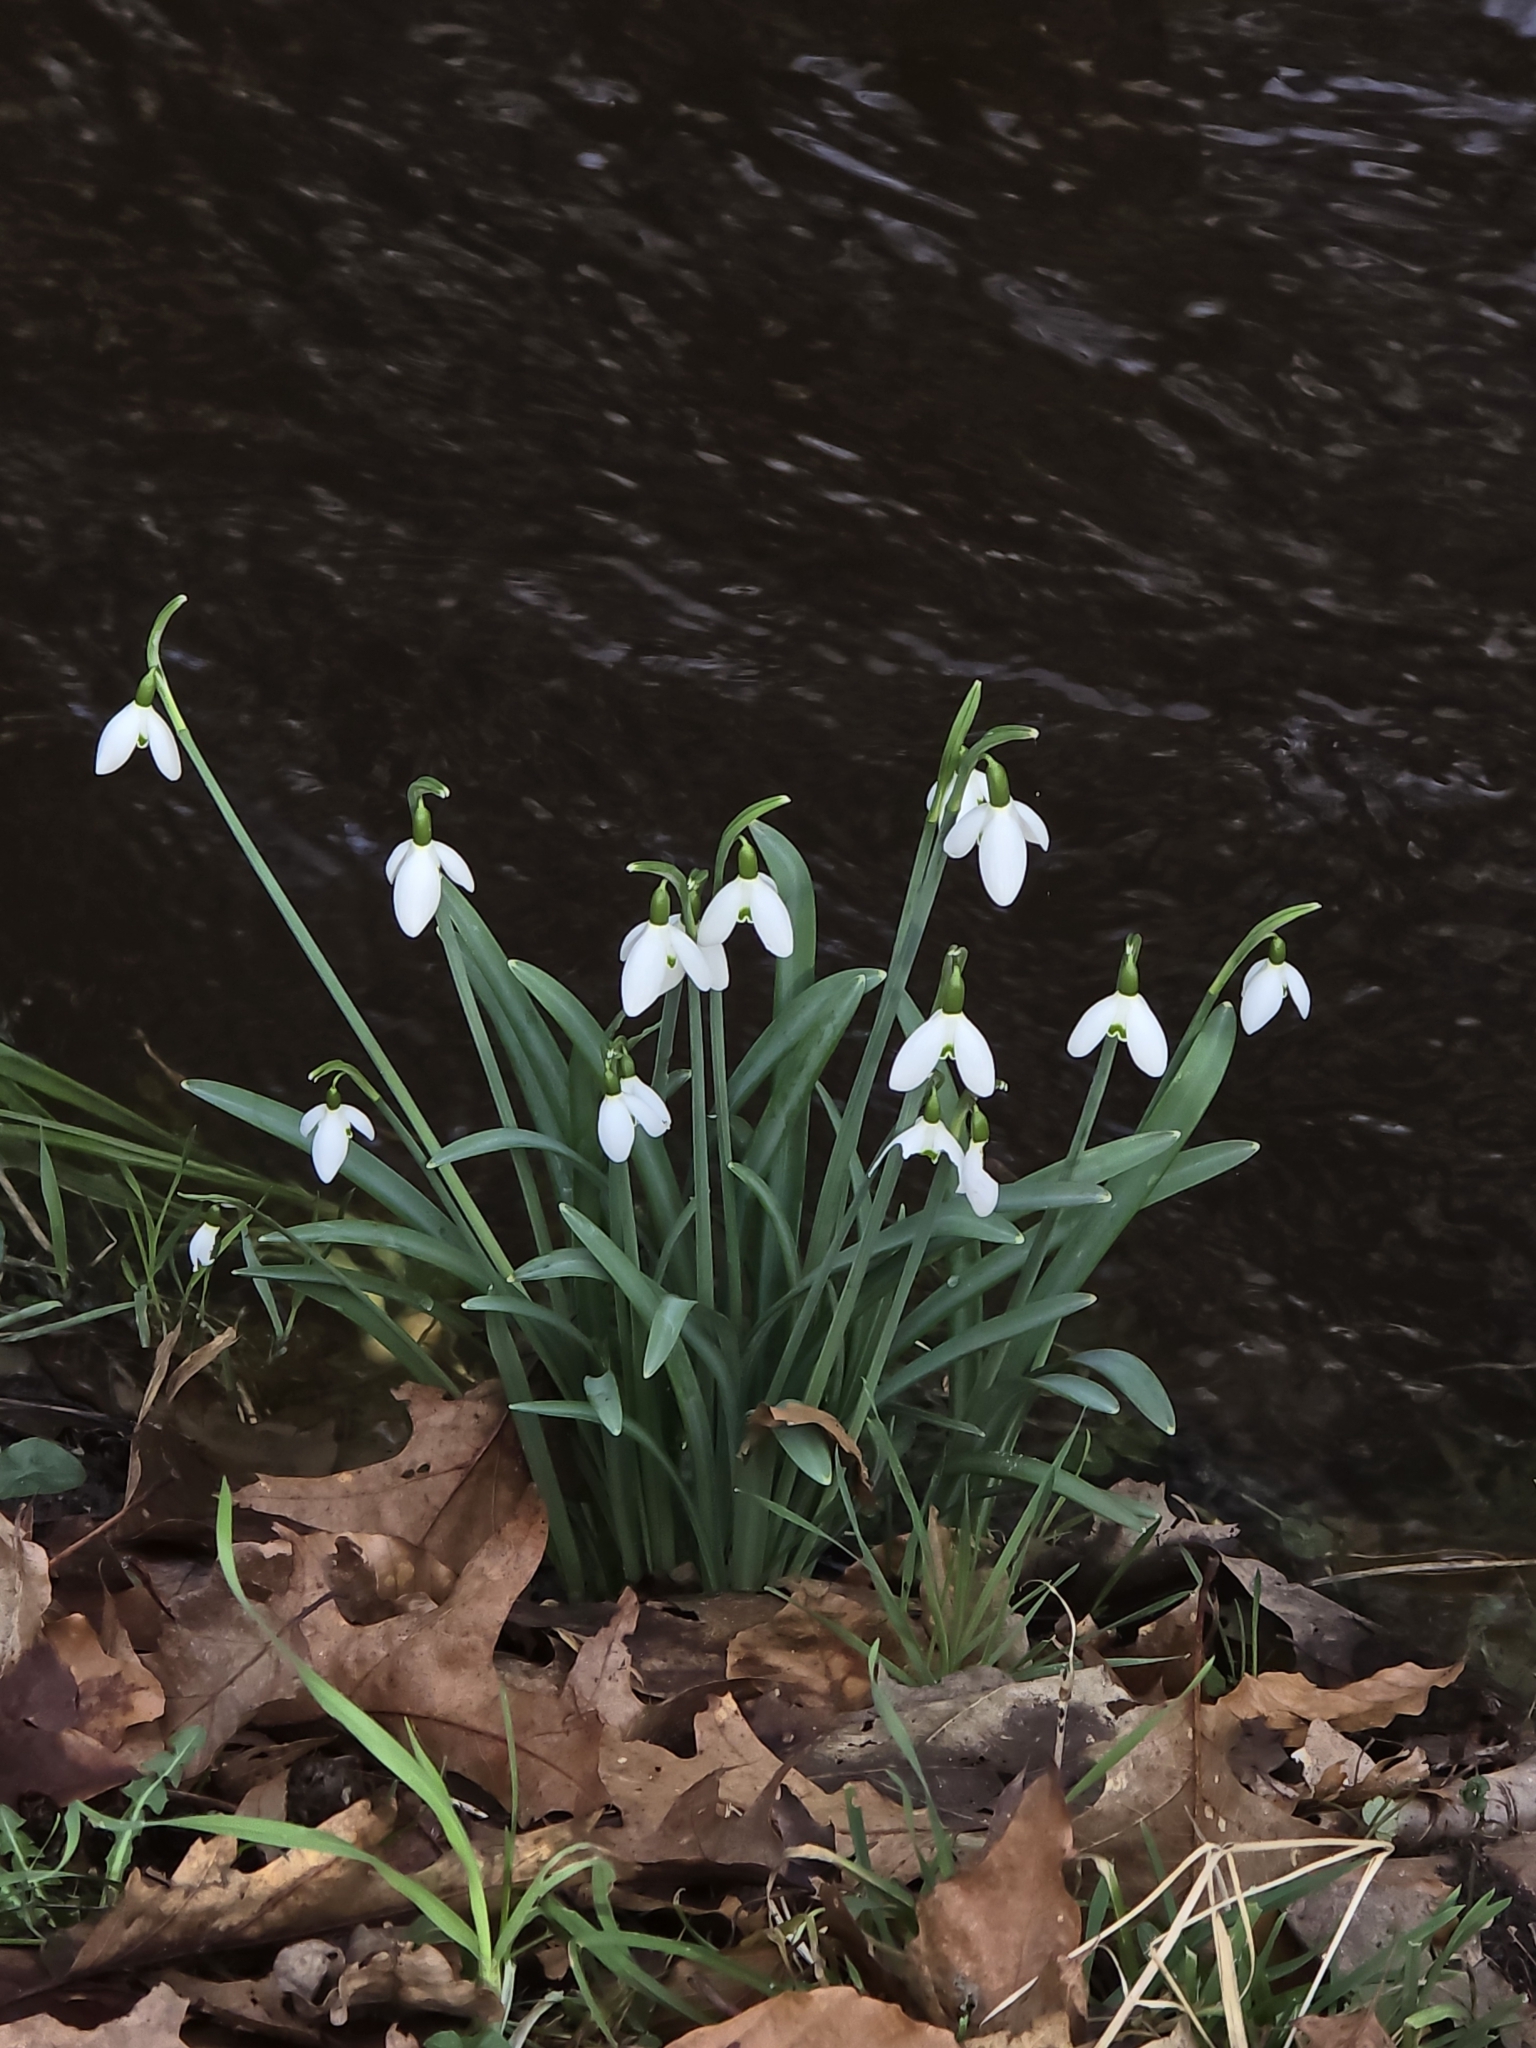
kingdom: Plantae
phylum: Tracheophyta
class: Liliopsida
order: Asparagales
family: Amaryllidaceae
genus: Galanthus
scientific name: Galanthus nivalis
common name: Snowdrop
